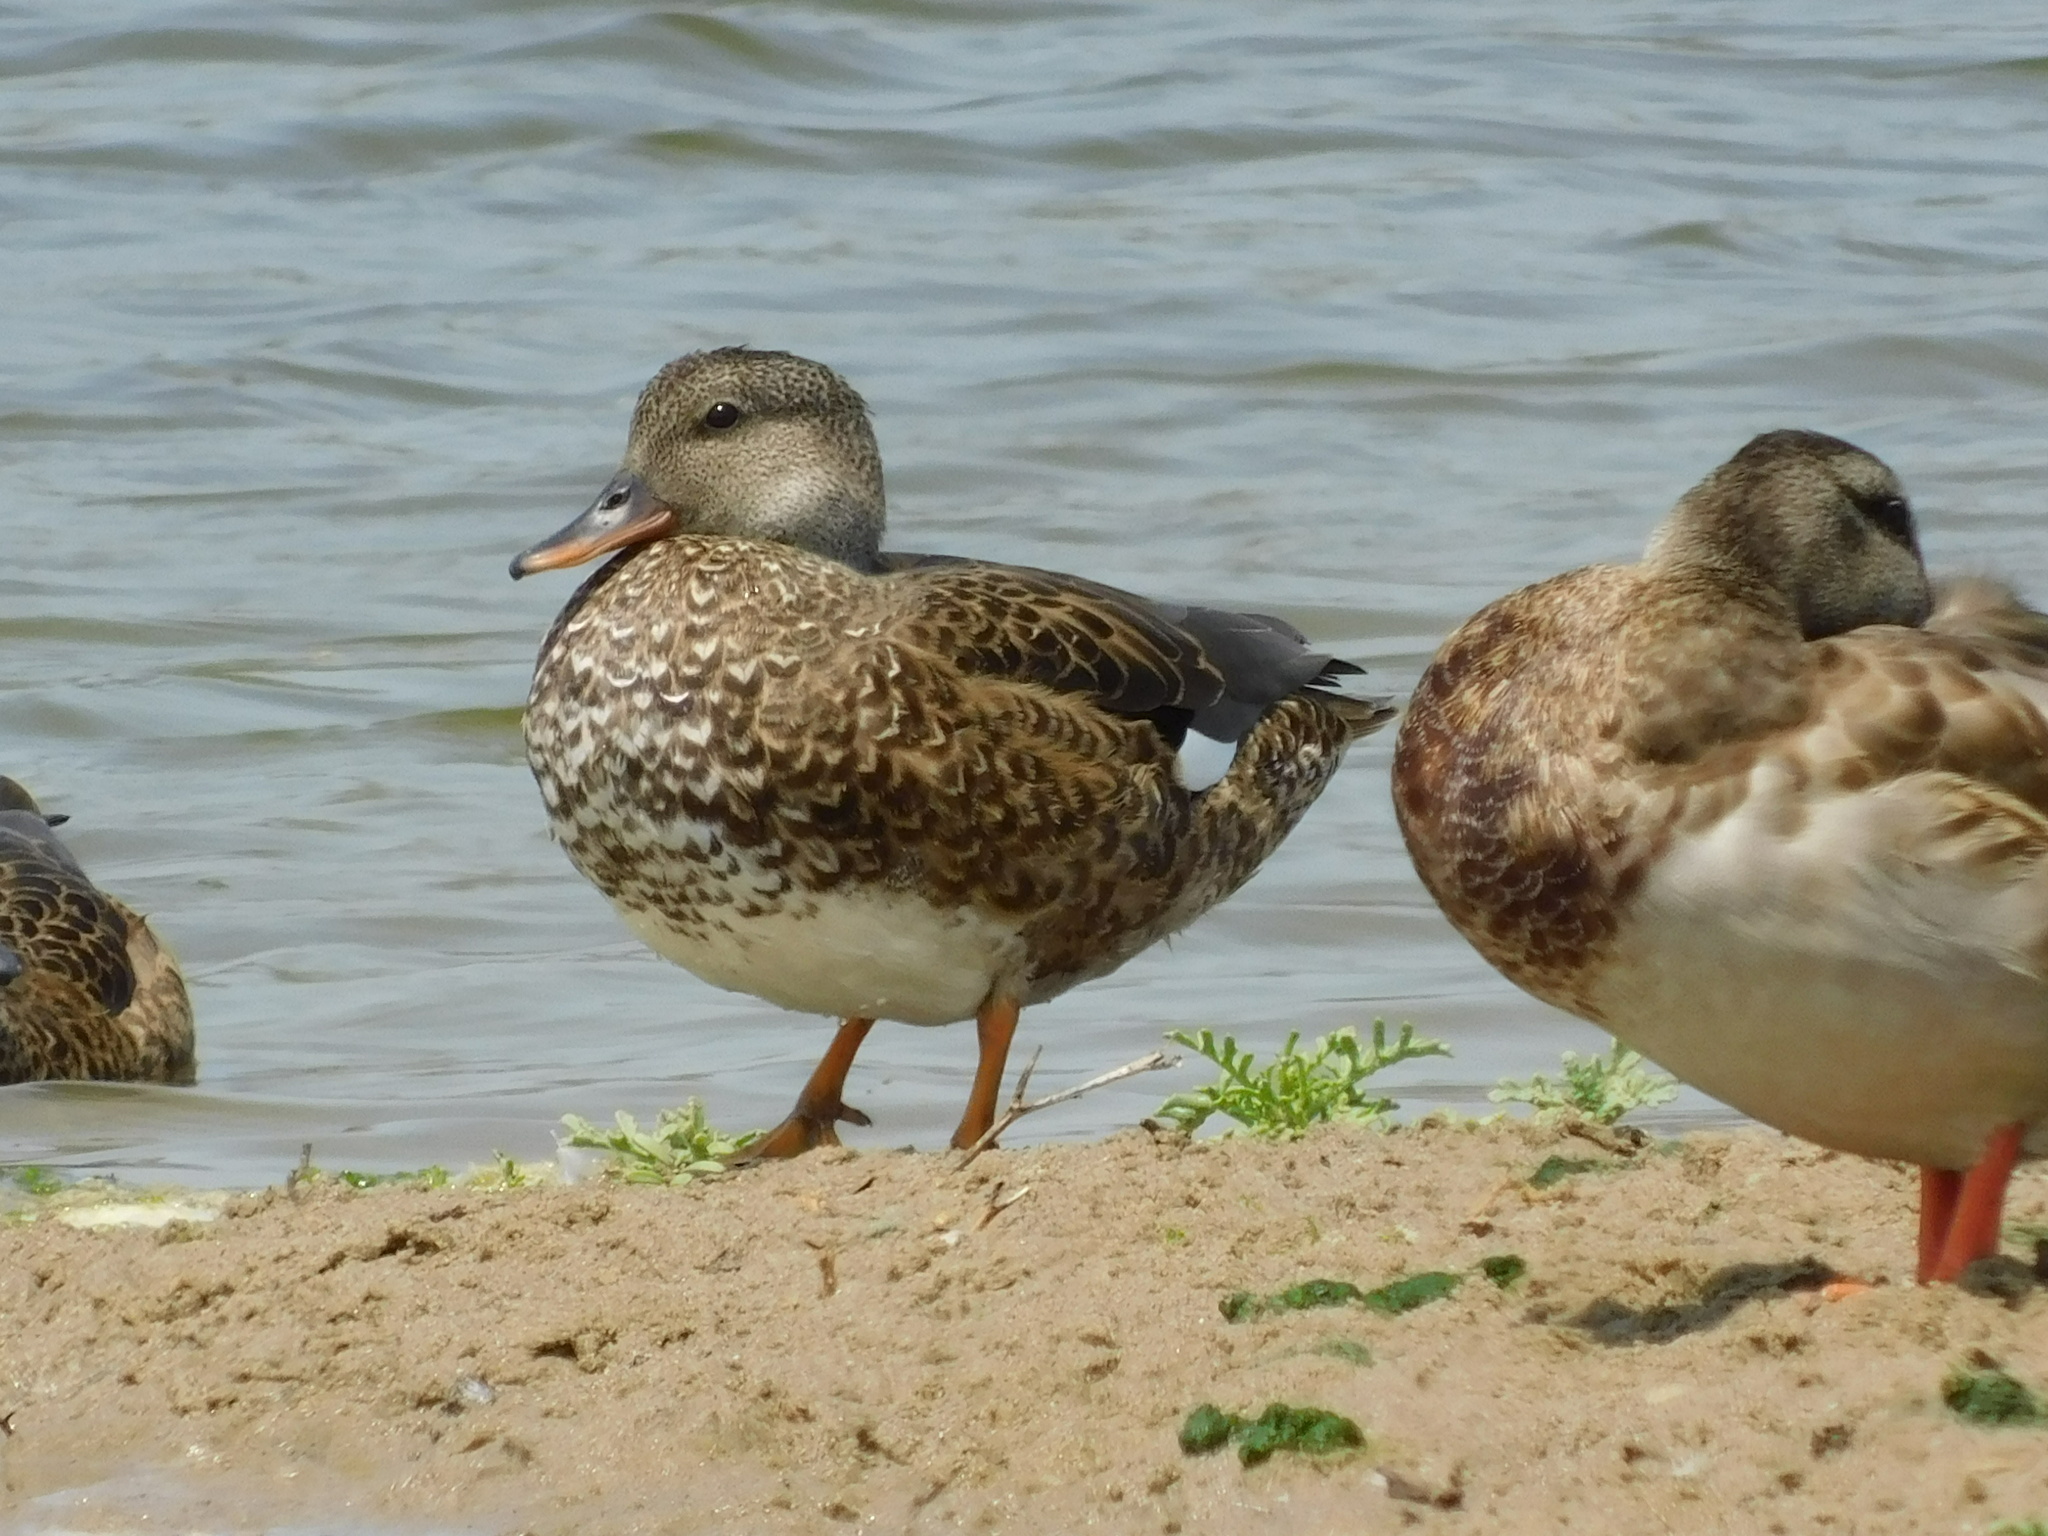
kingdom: Animalia
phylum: Chordata
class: Aves
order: Anseriformes
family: Anatidae
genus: Mareca
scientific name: Mareca strepera
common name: Gadwall
